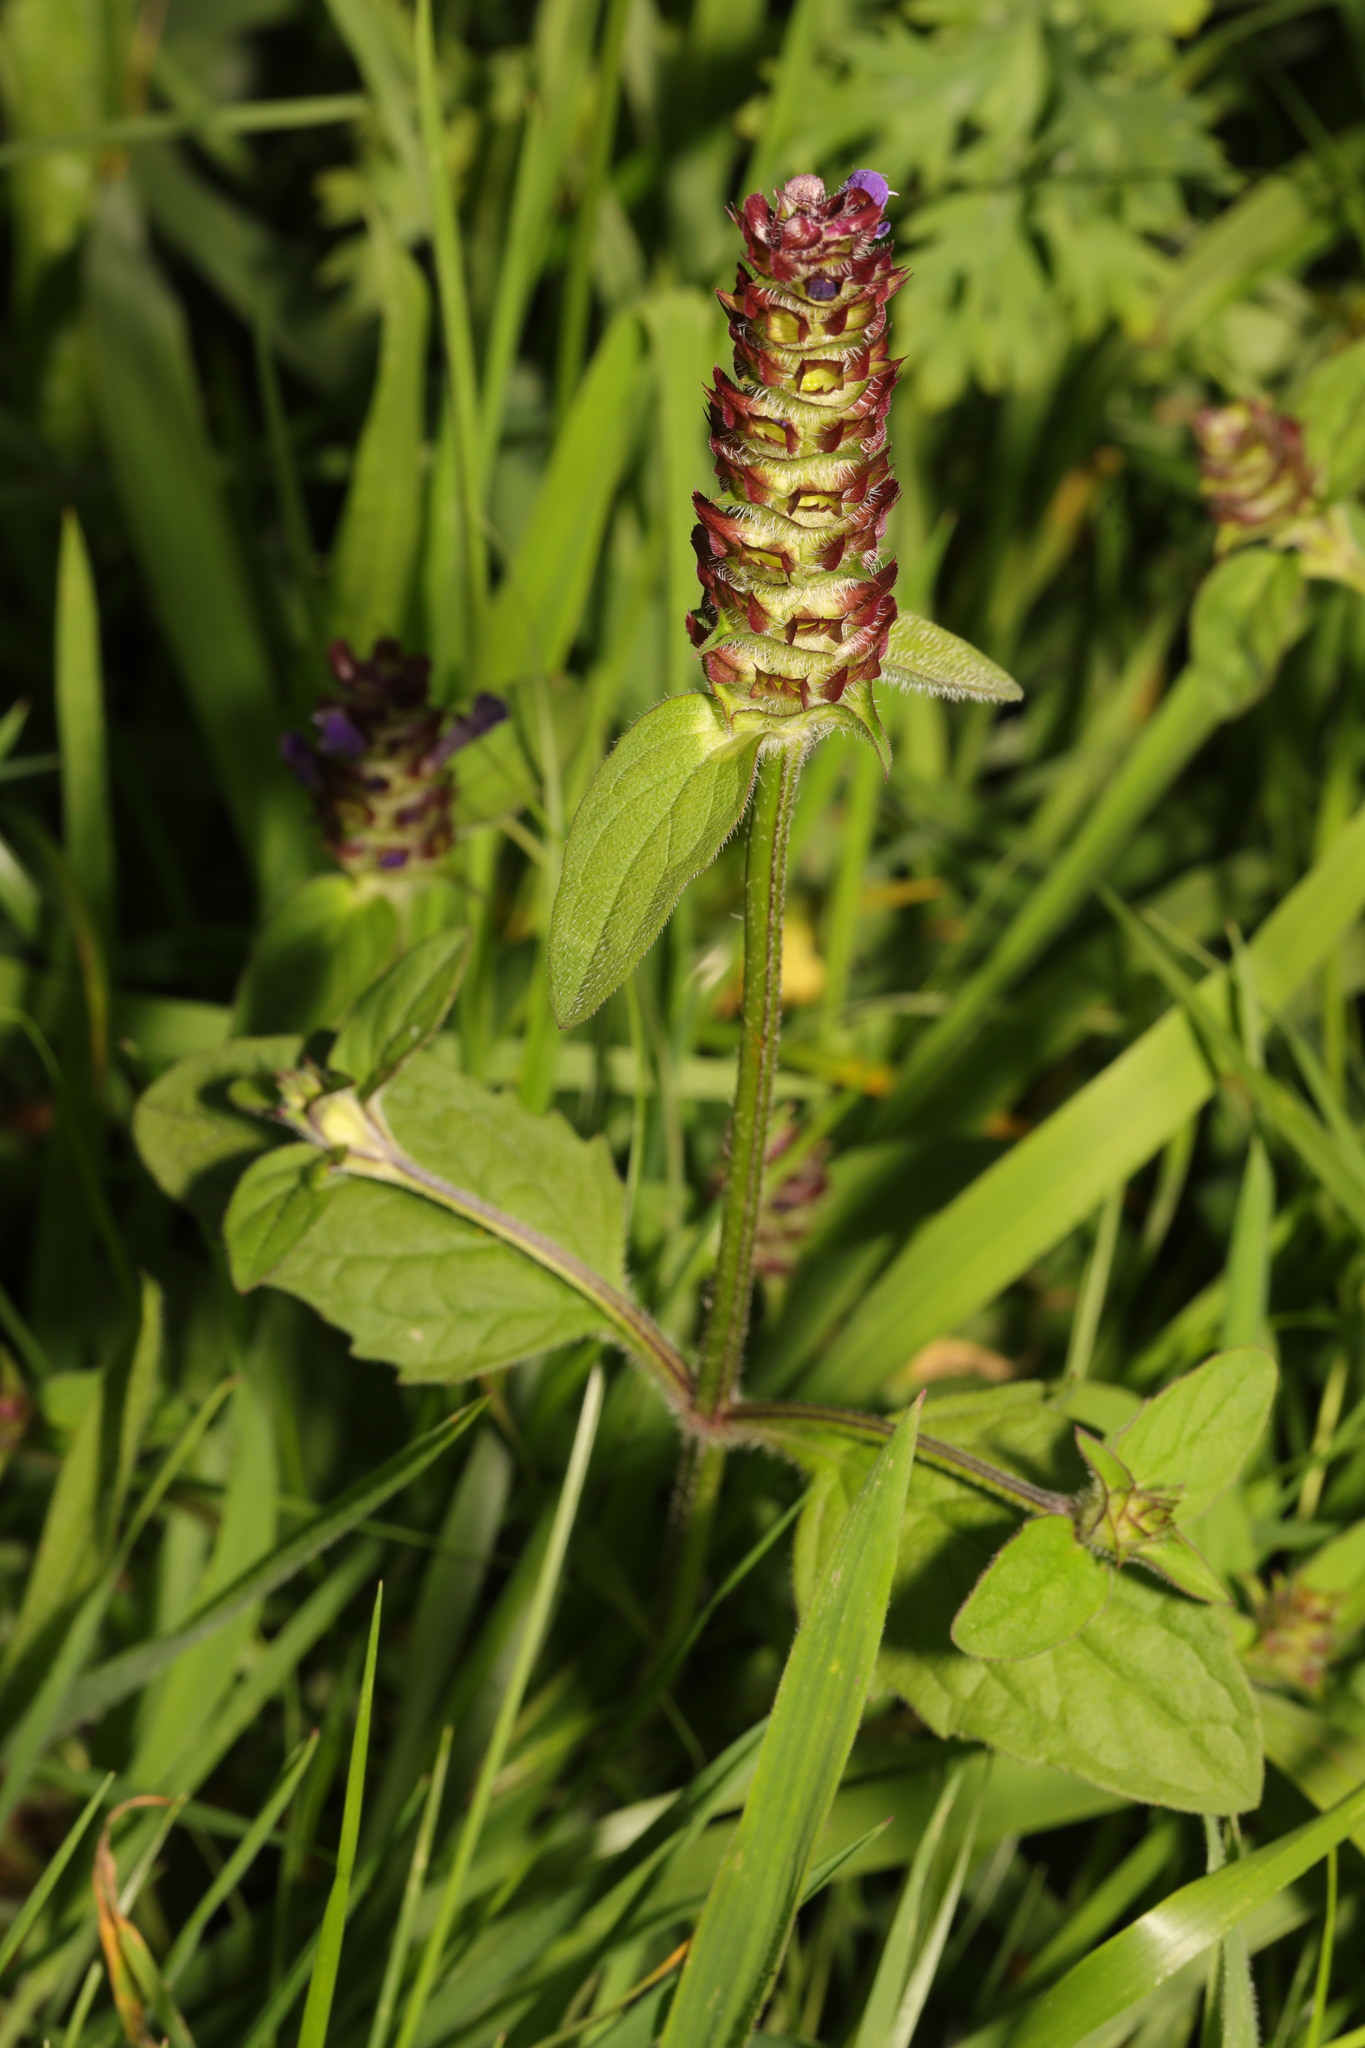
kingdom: Plantae
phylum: Tracheophyta
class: Magnoliopsida
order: Lamiales
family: Lamiaceae
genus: Prunella
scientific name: Prunella vulgaris
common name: Heal-all
